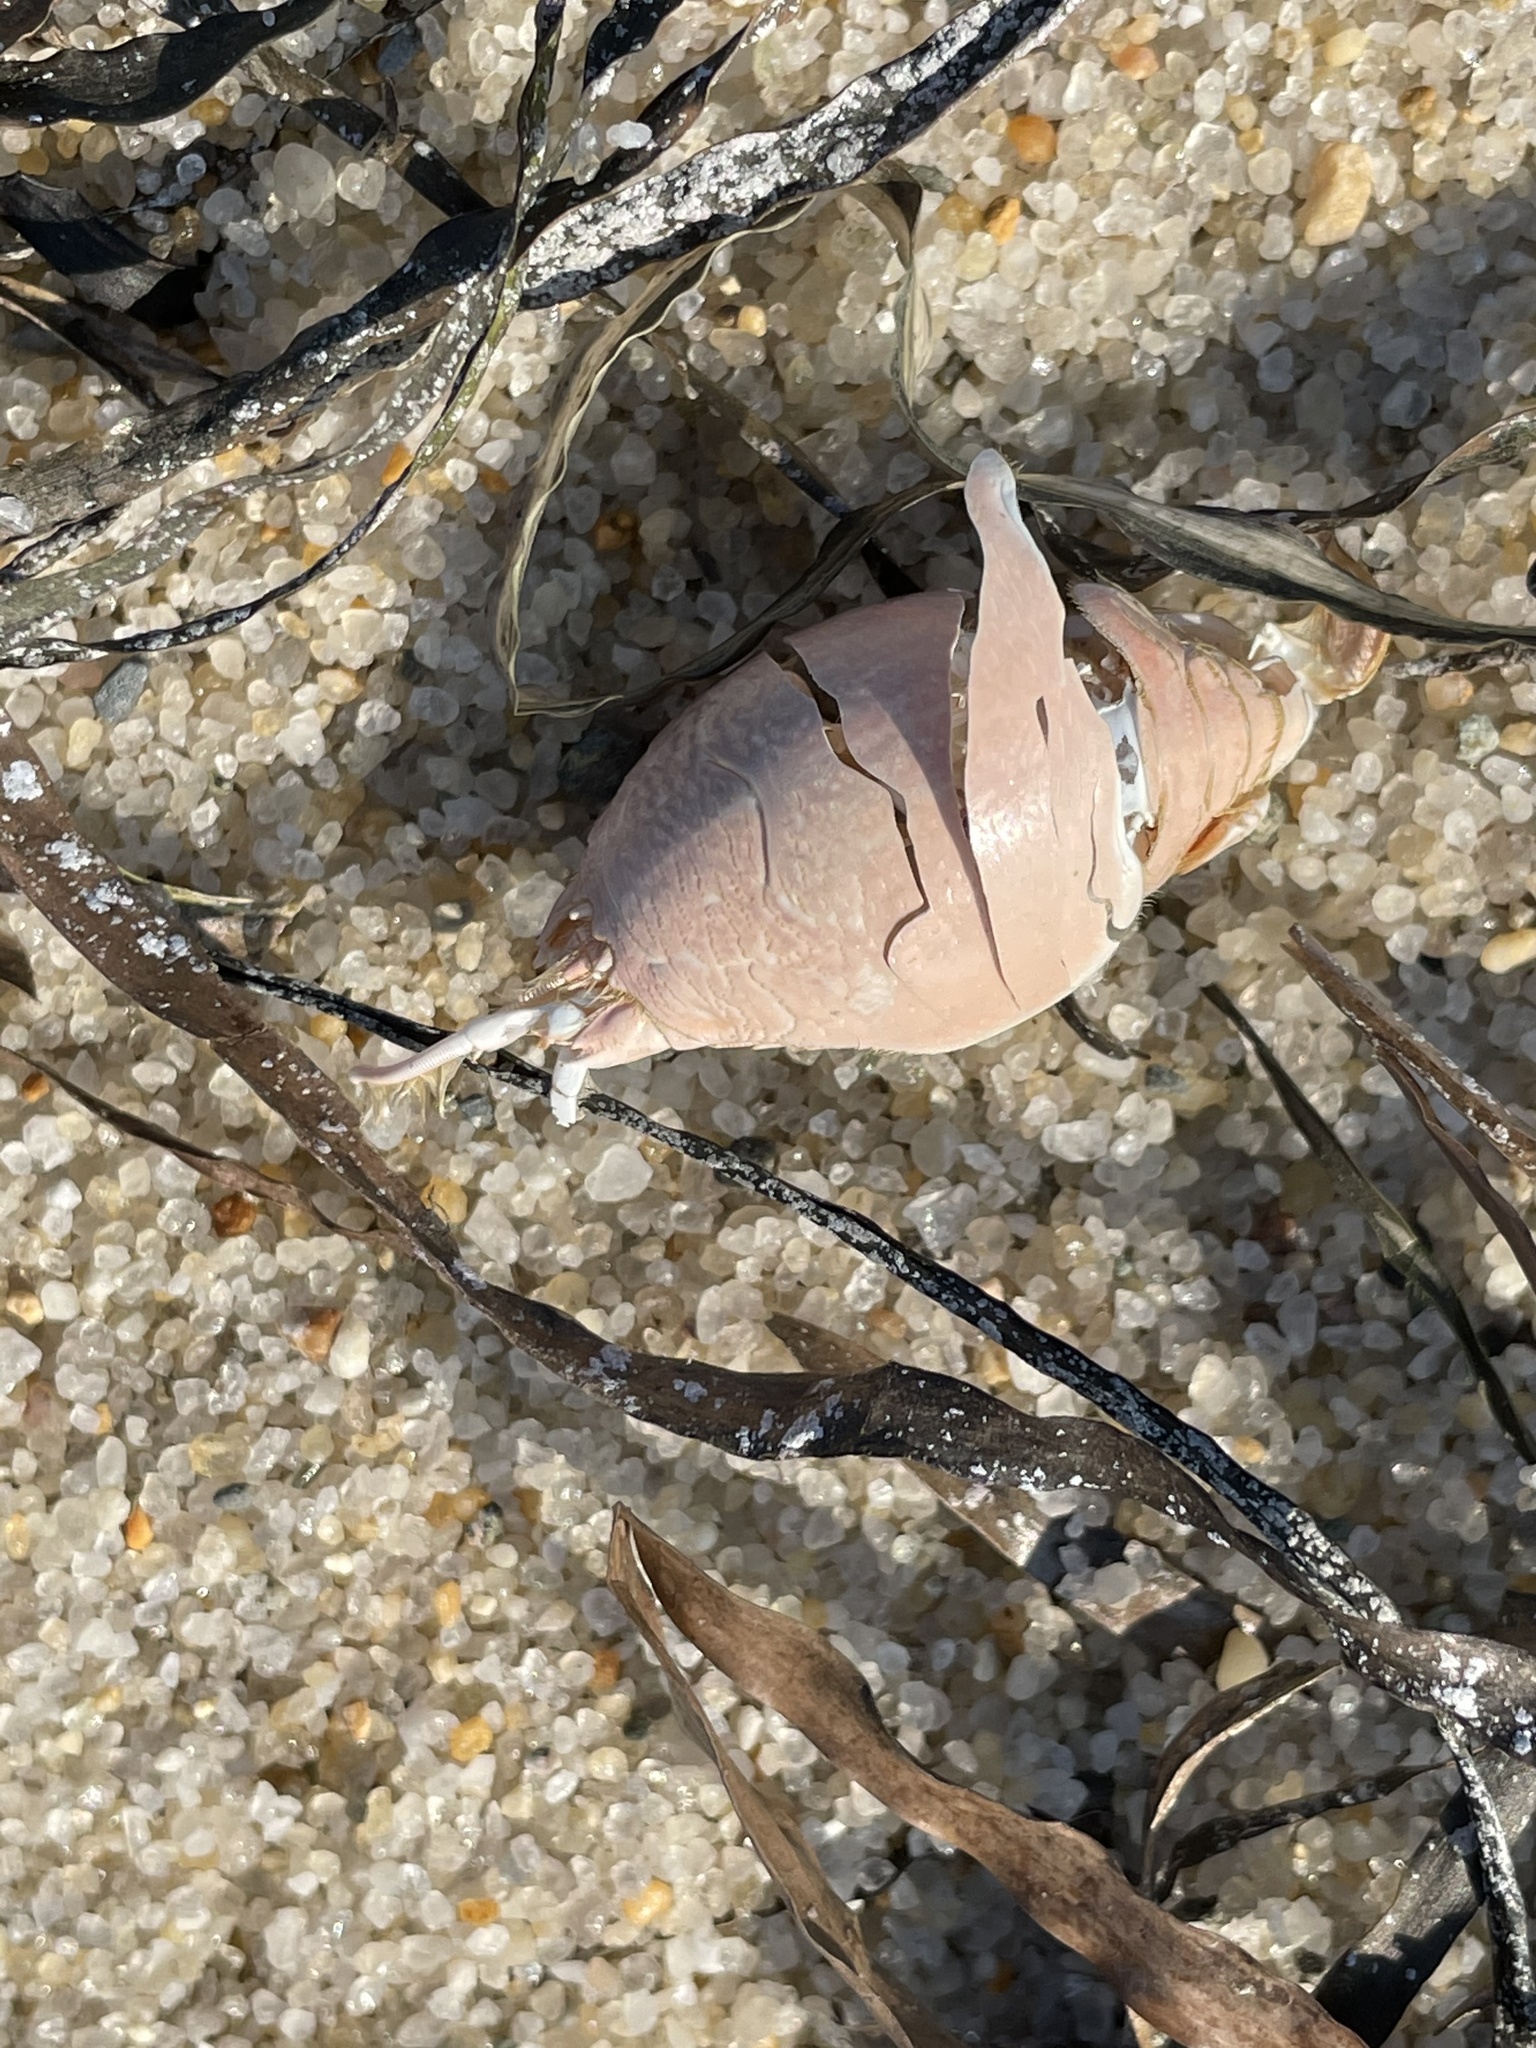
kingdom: Animalia
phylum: Arthropoda
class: Malacostraca
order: Decapoda
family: Hippidae
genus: Emerita
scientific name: Emerita talpoida
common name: Atlantic sand crab
